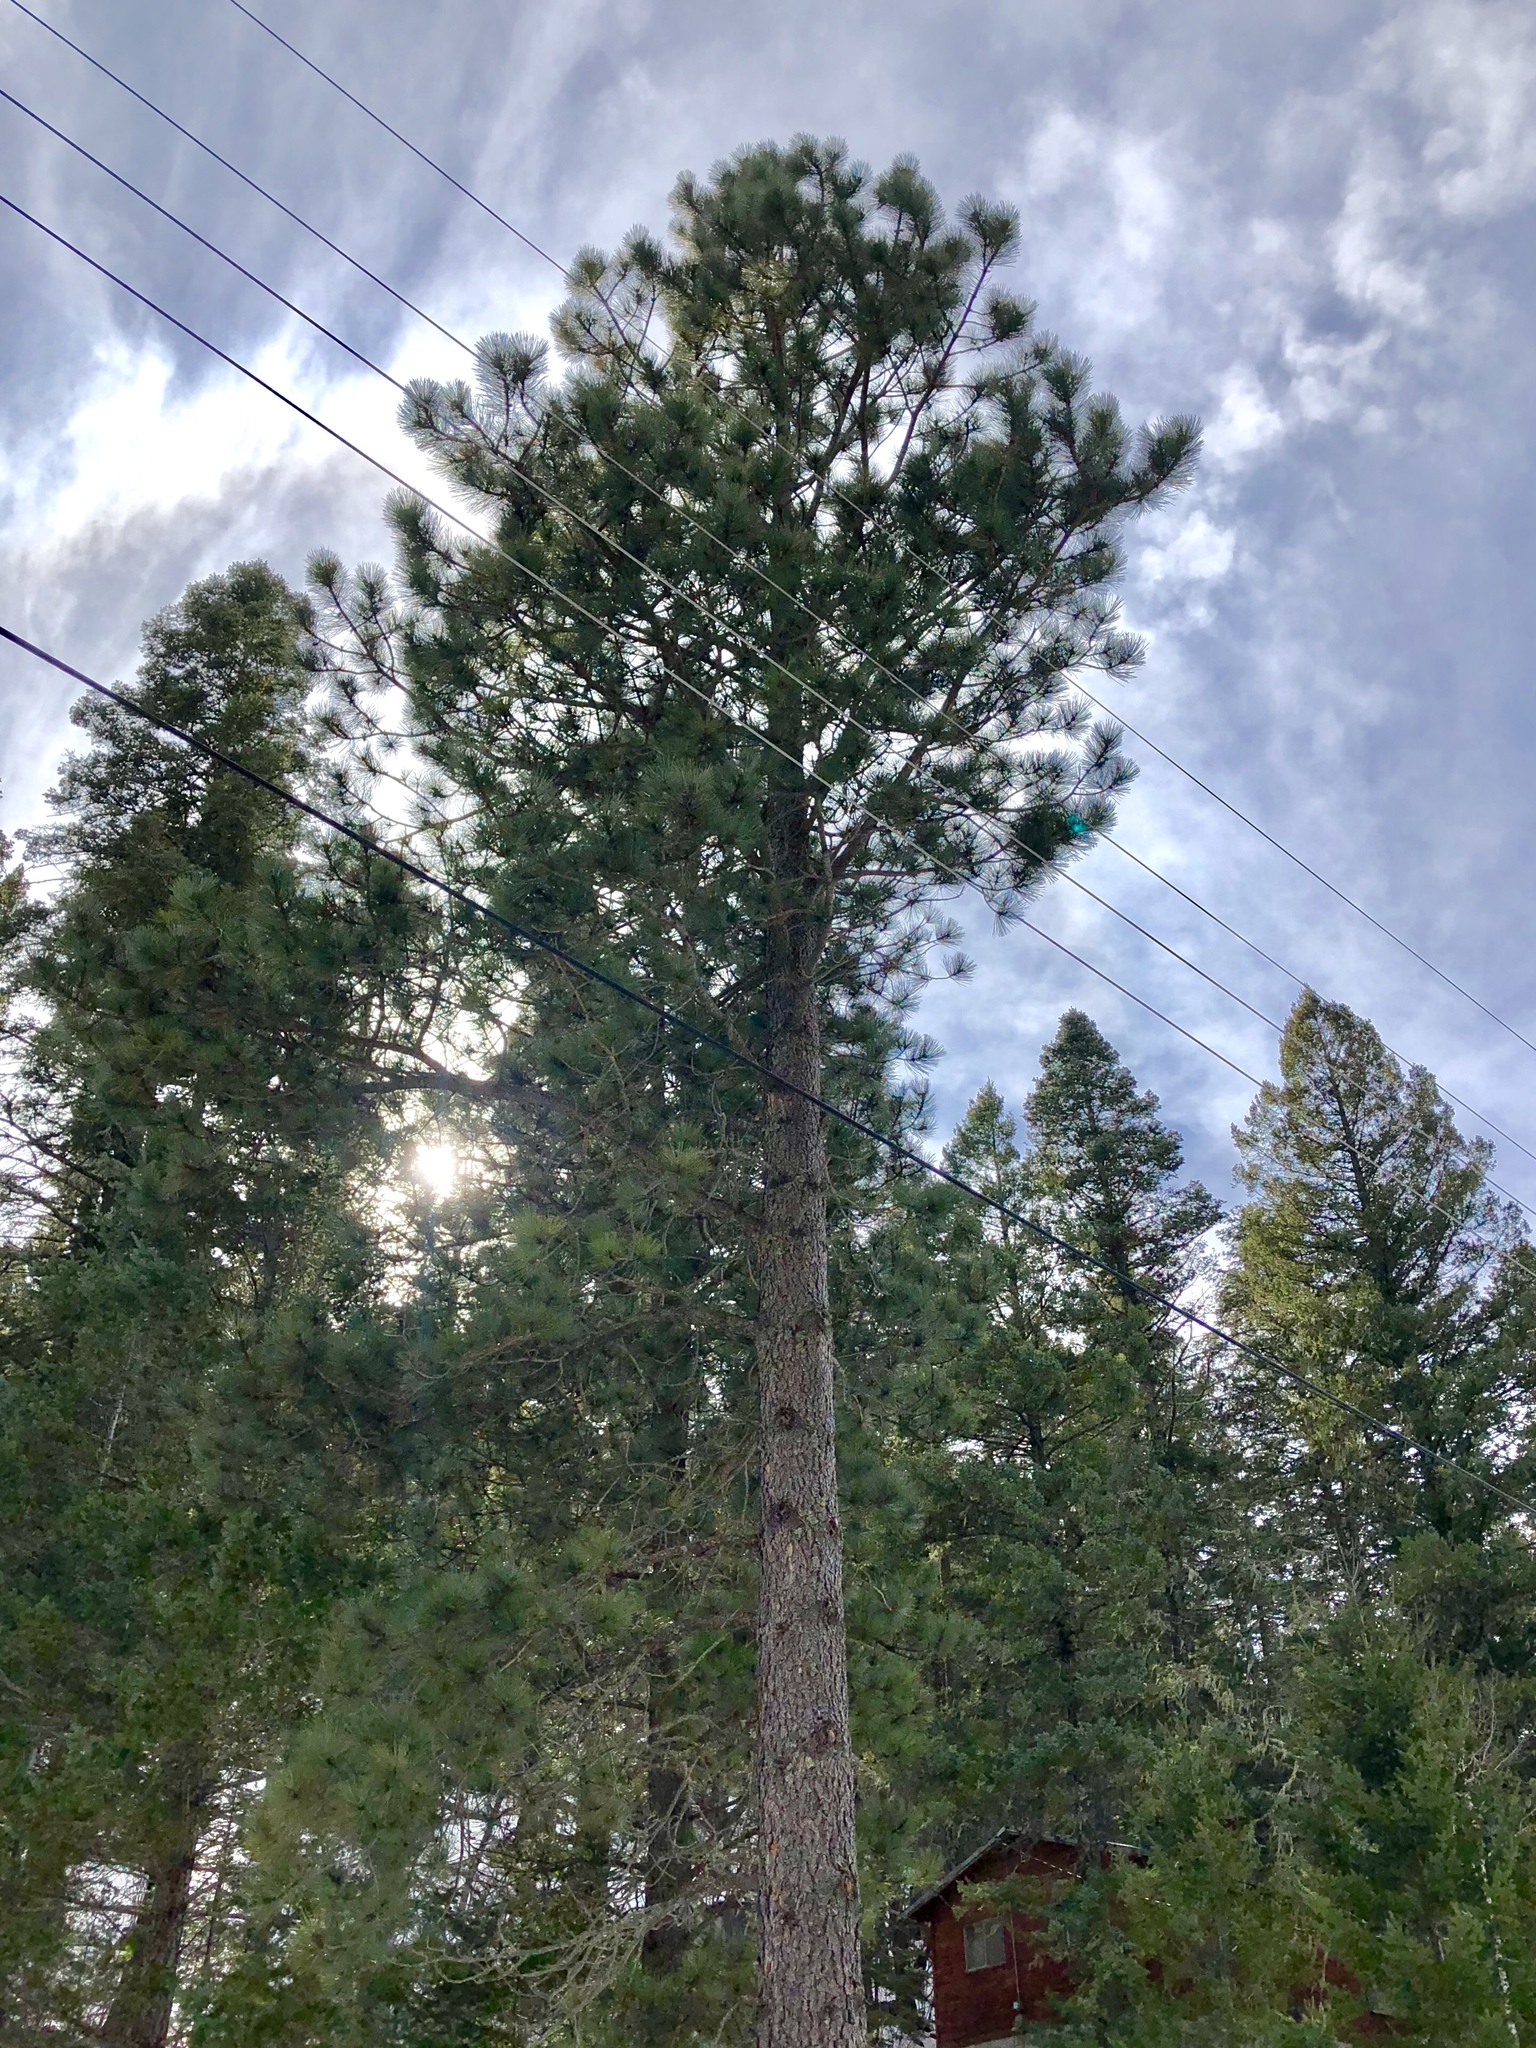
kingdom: Plantae
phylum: Tracheophyta
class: Pinopsida
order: Pinales
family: Pinaceae
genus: Pinus
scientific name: Pinus ponderosa
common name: Western yellow-pine
